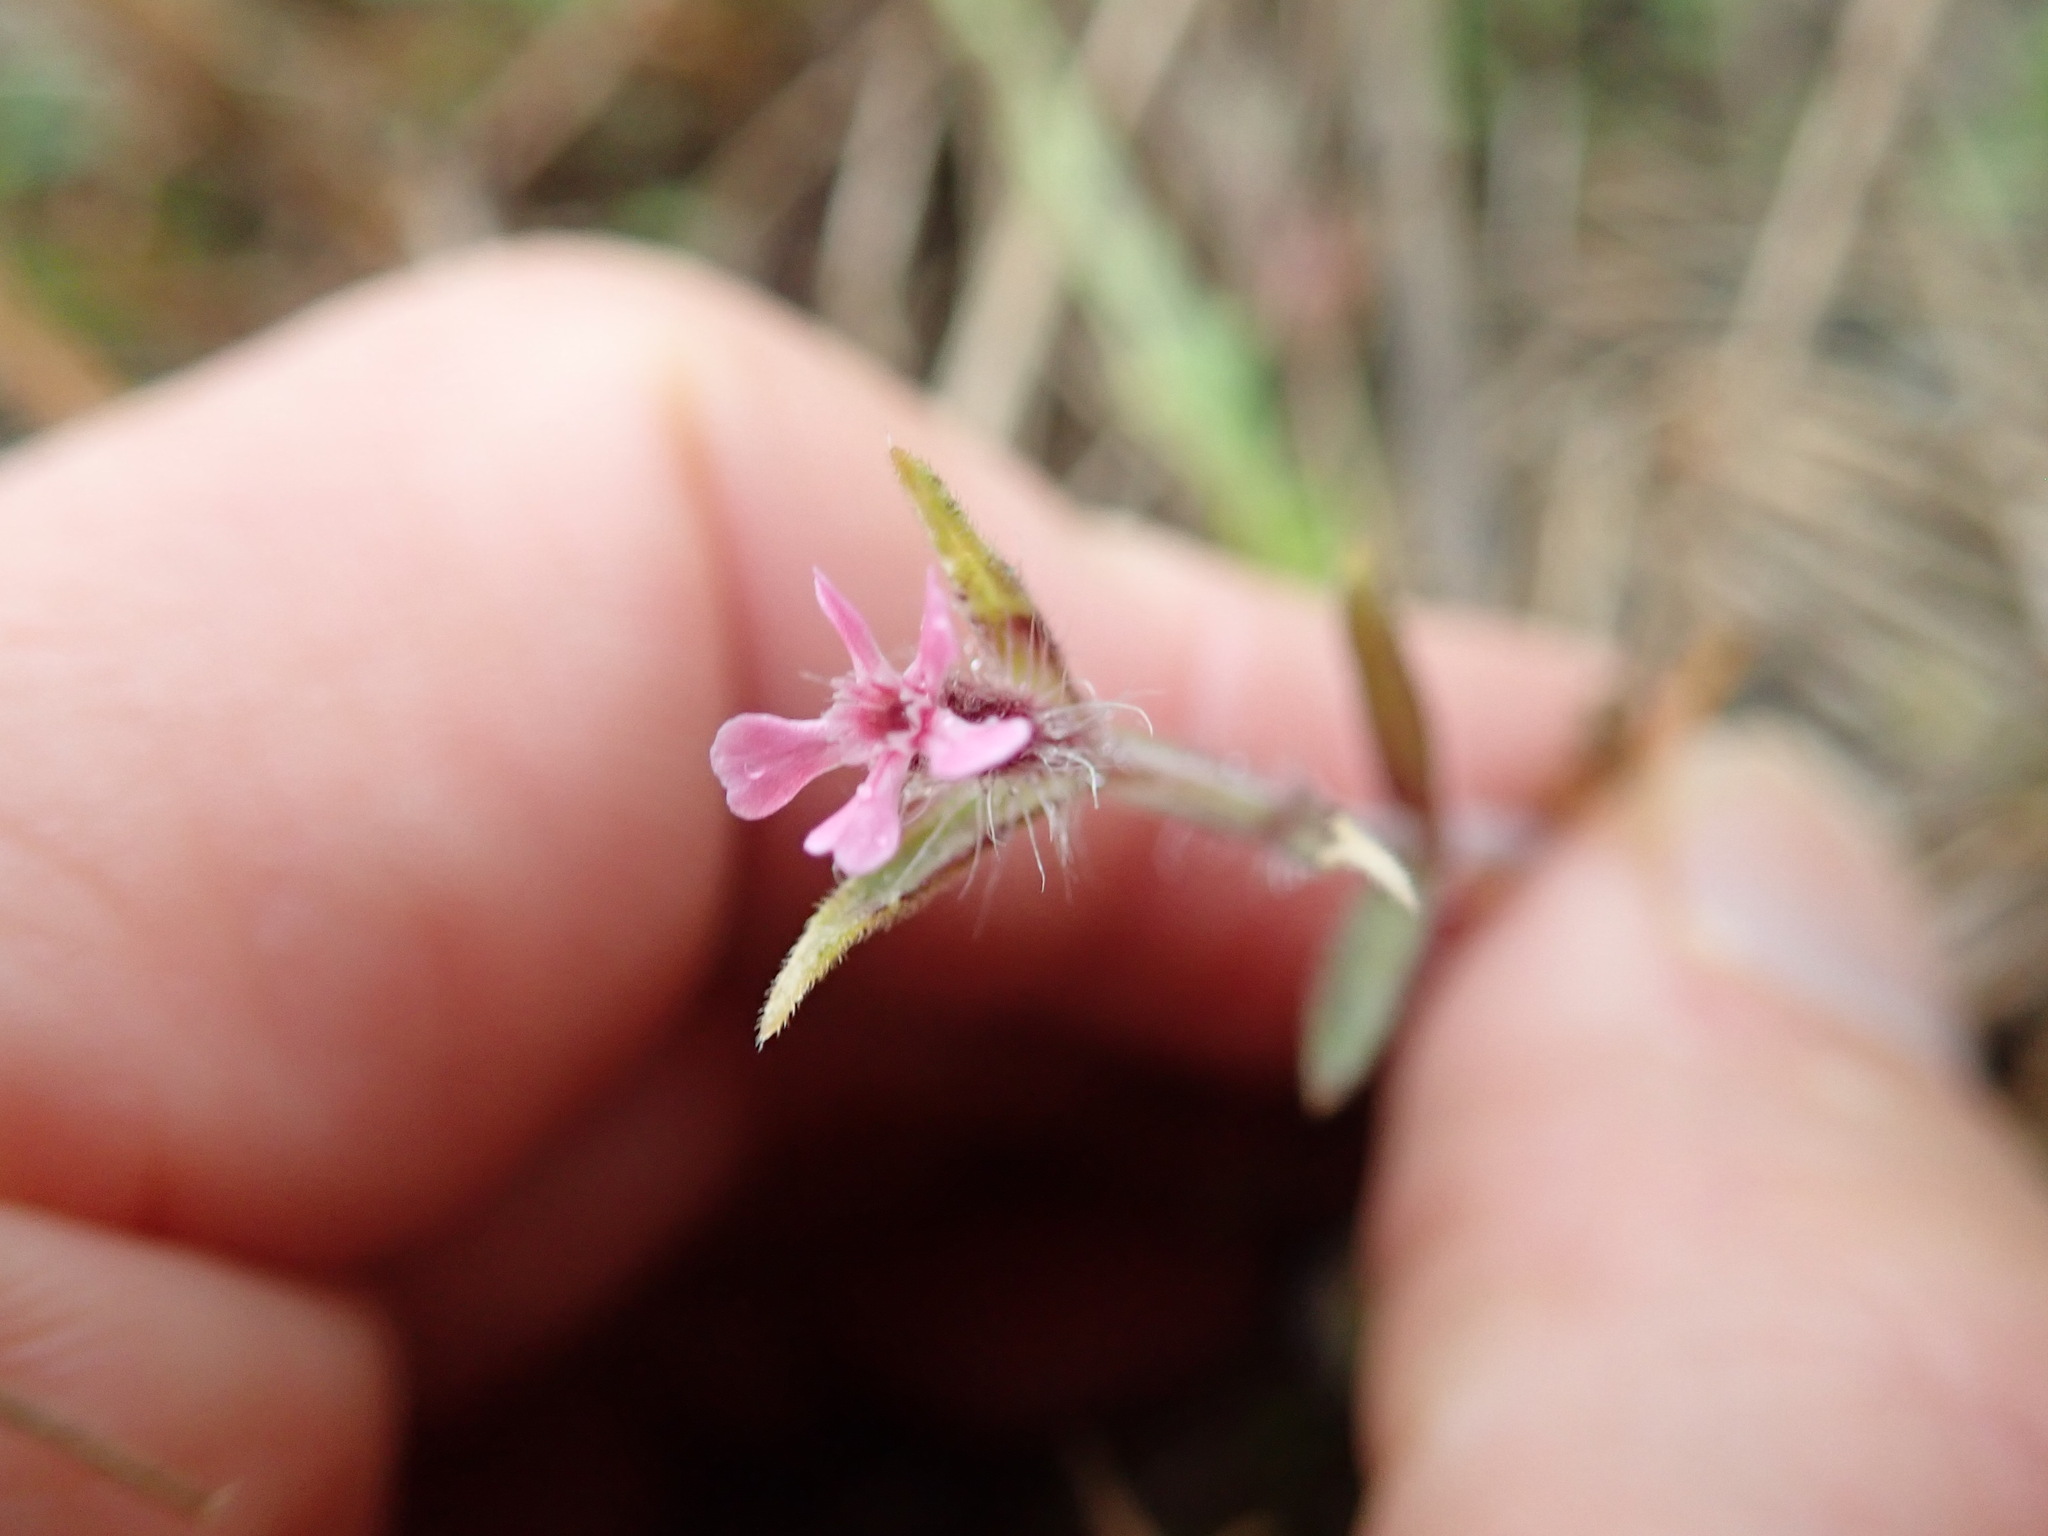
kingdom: Plantae
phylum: Tracheophyta
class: Magnoliopsida
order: Caryophyllales
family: Caryophyllaceae
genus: Silene
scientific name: Silene gallica
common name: Small-flowered catchfly
